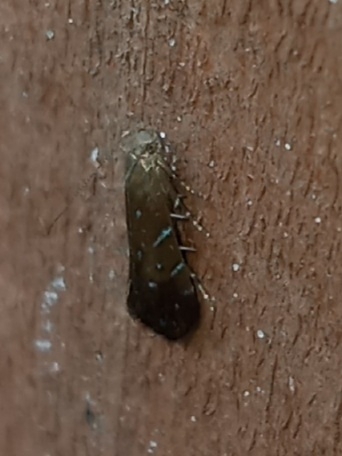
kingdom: Animalia
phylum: Arthropoda
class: Insecta
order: Lepidoptera
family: Gelechiidae
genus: Strobisia
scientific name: Strobisia iridipennella
